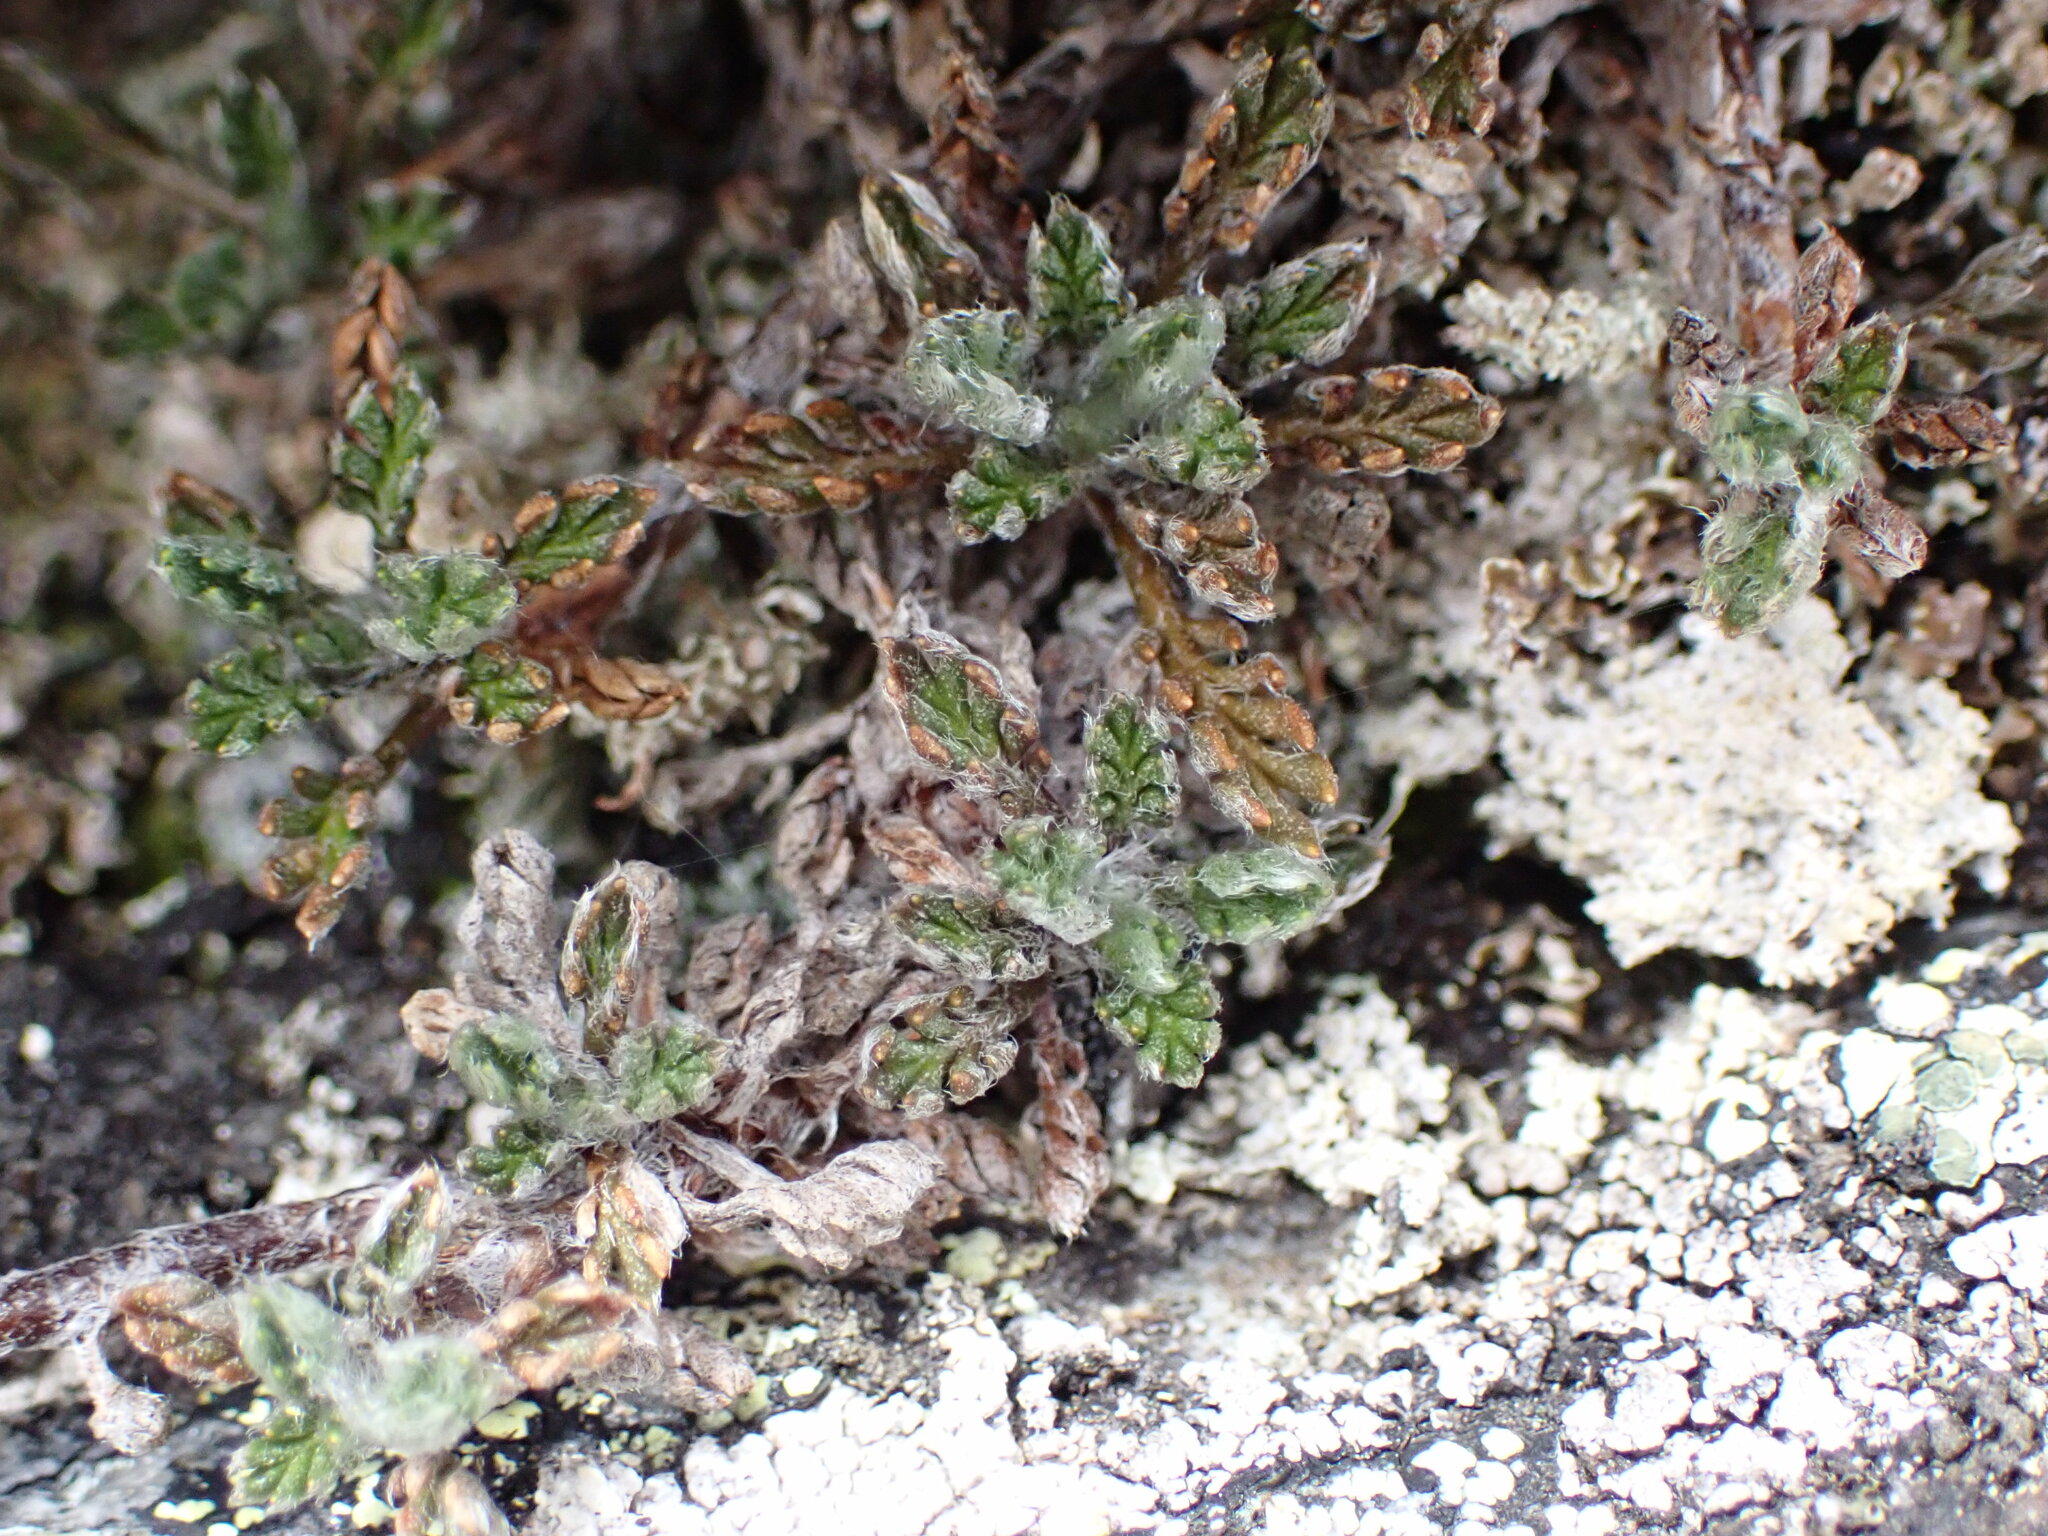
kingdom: Plantae
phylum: Tracheophyta
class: Magnoliopsida
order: Asterales
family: Asteraceae
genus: Leptinella
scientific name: Leptinella pectinata
